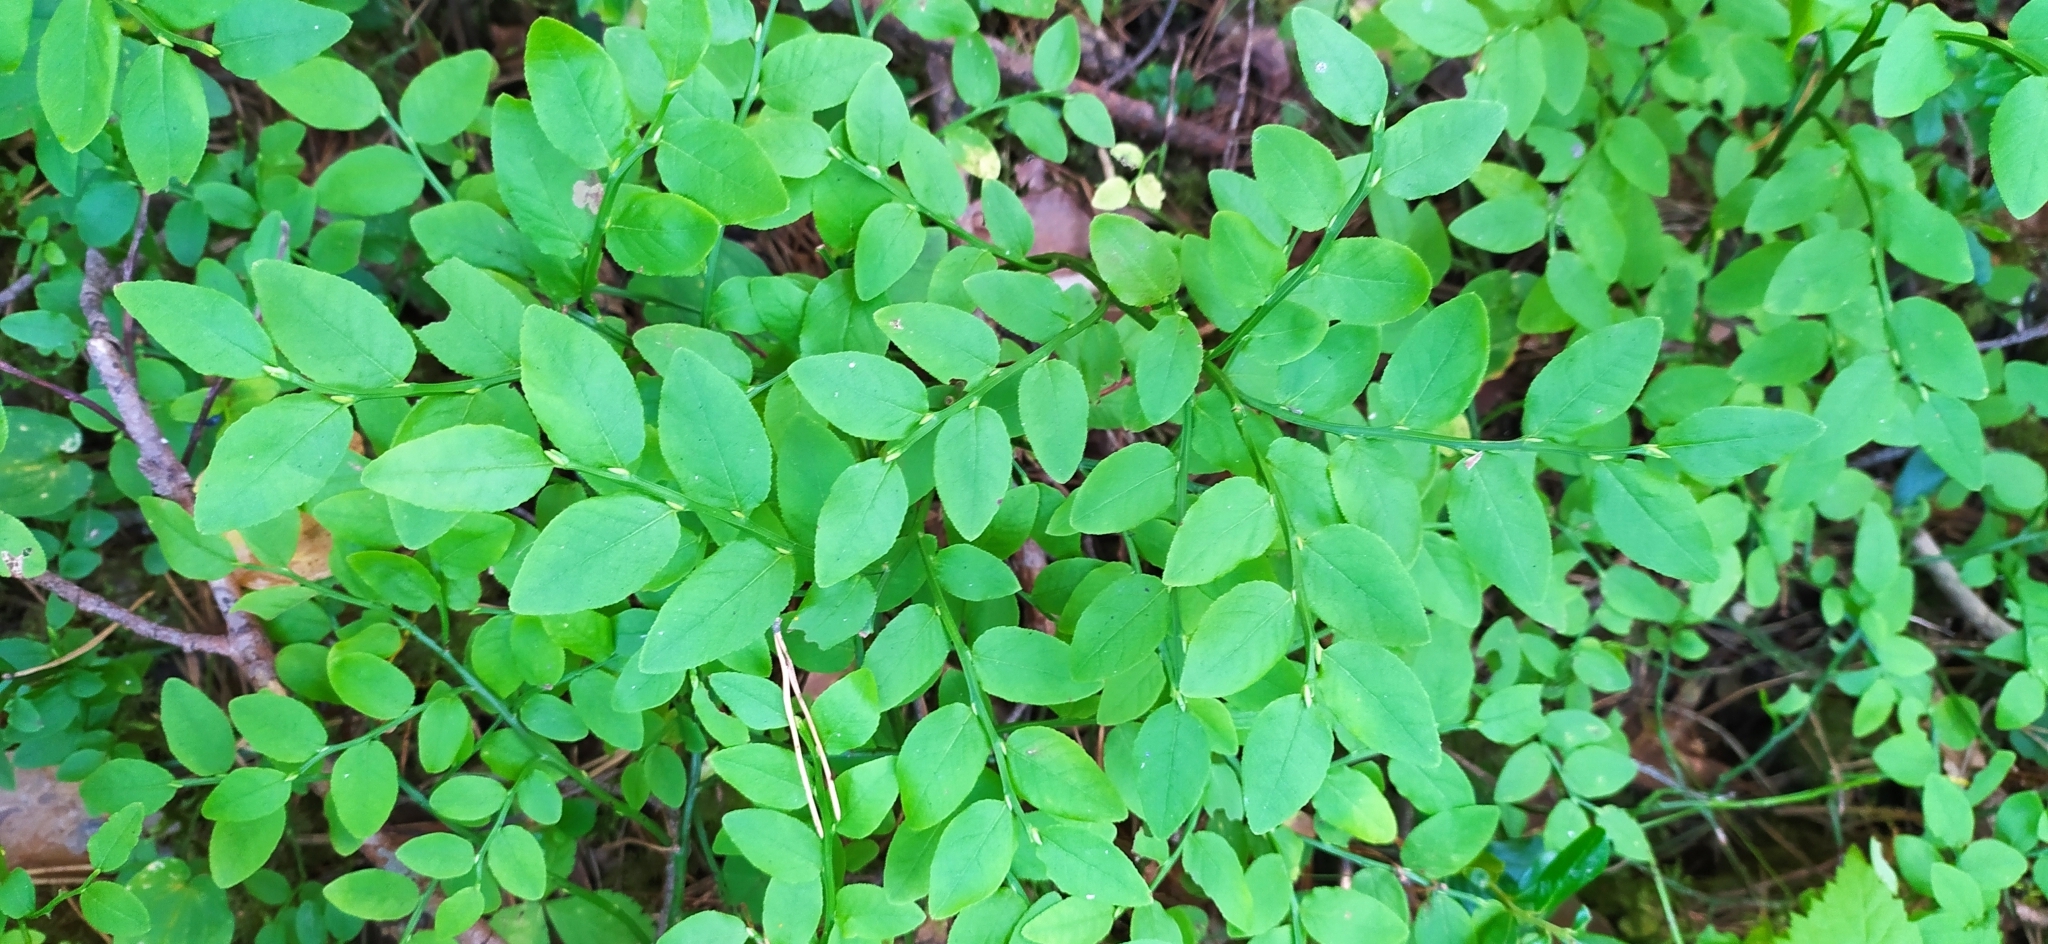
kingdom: Plantae
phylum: Tracheophyta
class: Magnoliopsida
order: Ericales
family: Ericaceae
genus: Vaccinium
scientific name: Vaccinium myrtillus
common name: Bilberry
